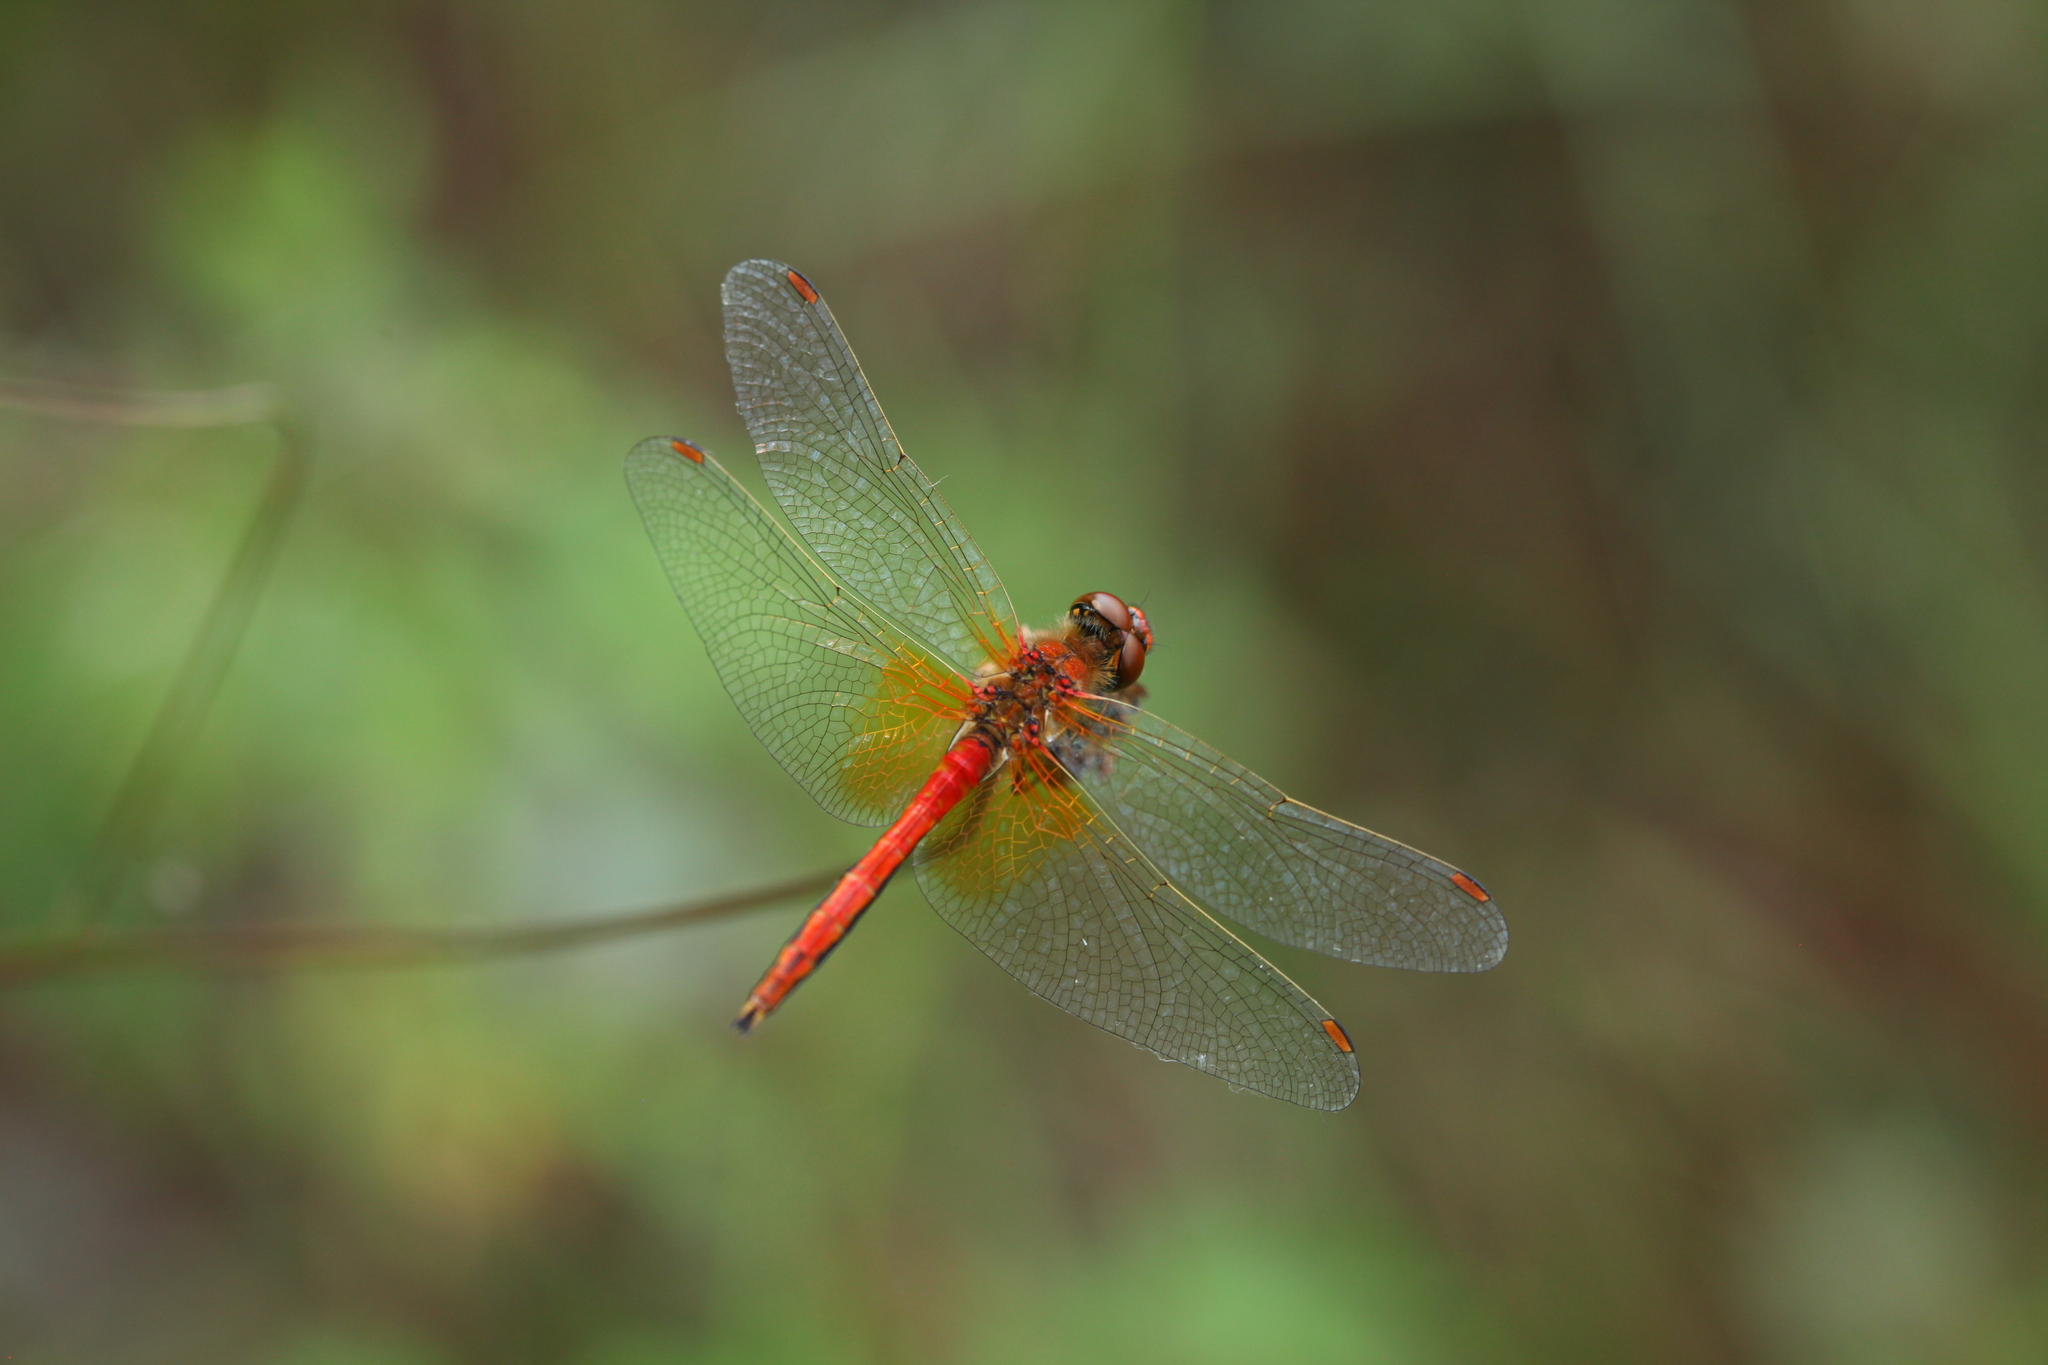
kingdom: Animalia
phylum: Arthropoda
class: Insecta
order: Odonata
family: Libellulidae
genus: Sympetrum
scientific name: Sympetrum flaveolum
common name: Yellow-winged darter
